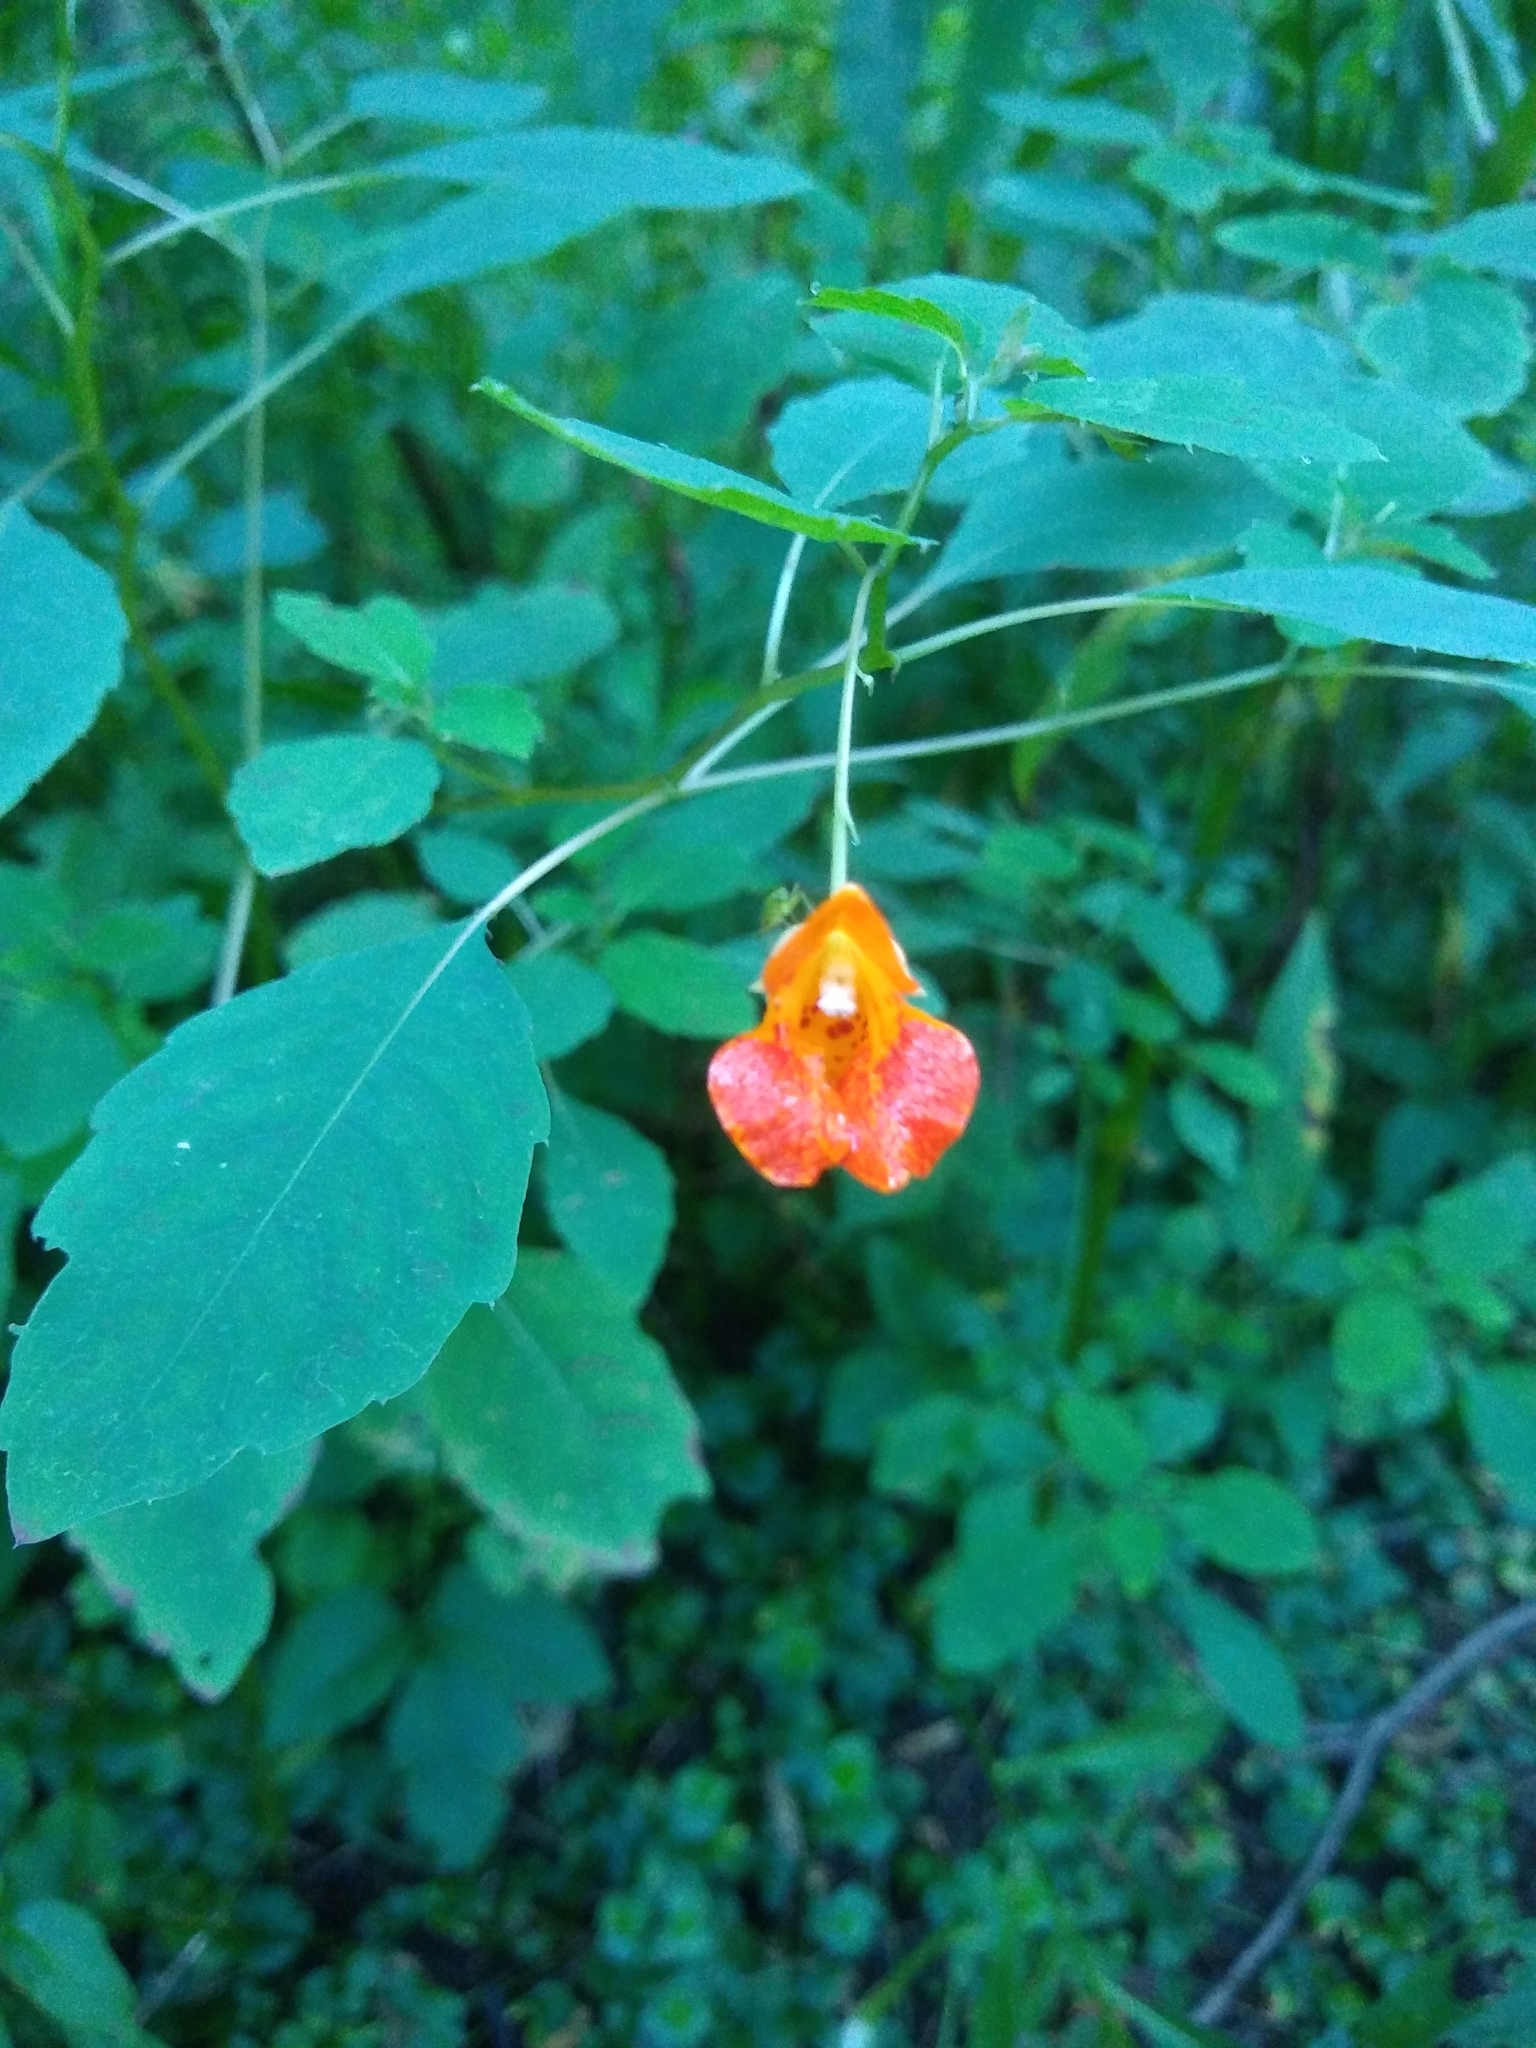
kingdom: Plantae
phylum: Tracheophyta
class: Magnoliopsida
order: Ericales
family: Balsaminaceae
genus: Impatiens
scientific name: Impatiens capensis
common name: Orange balsam
